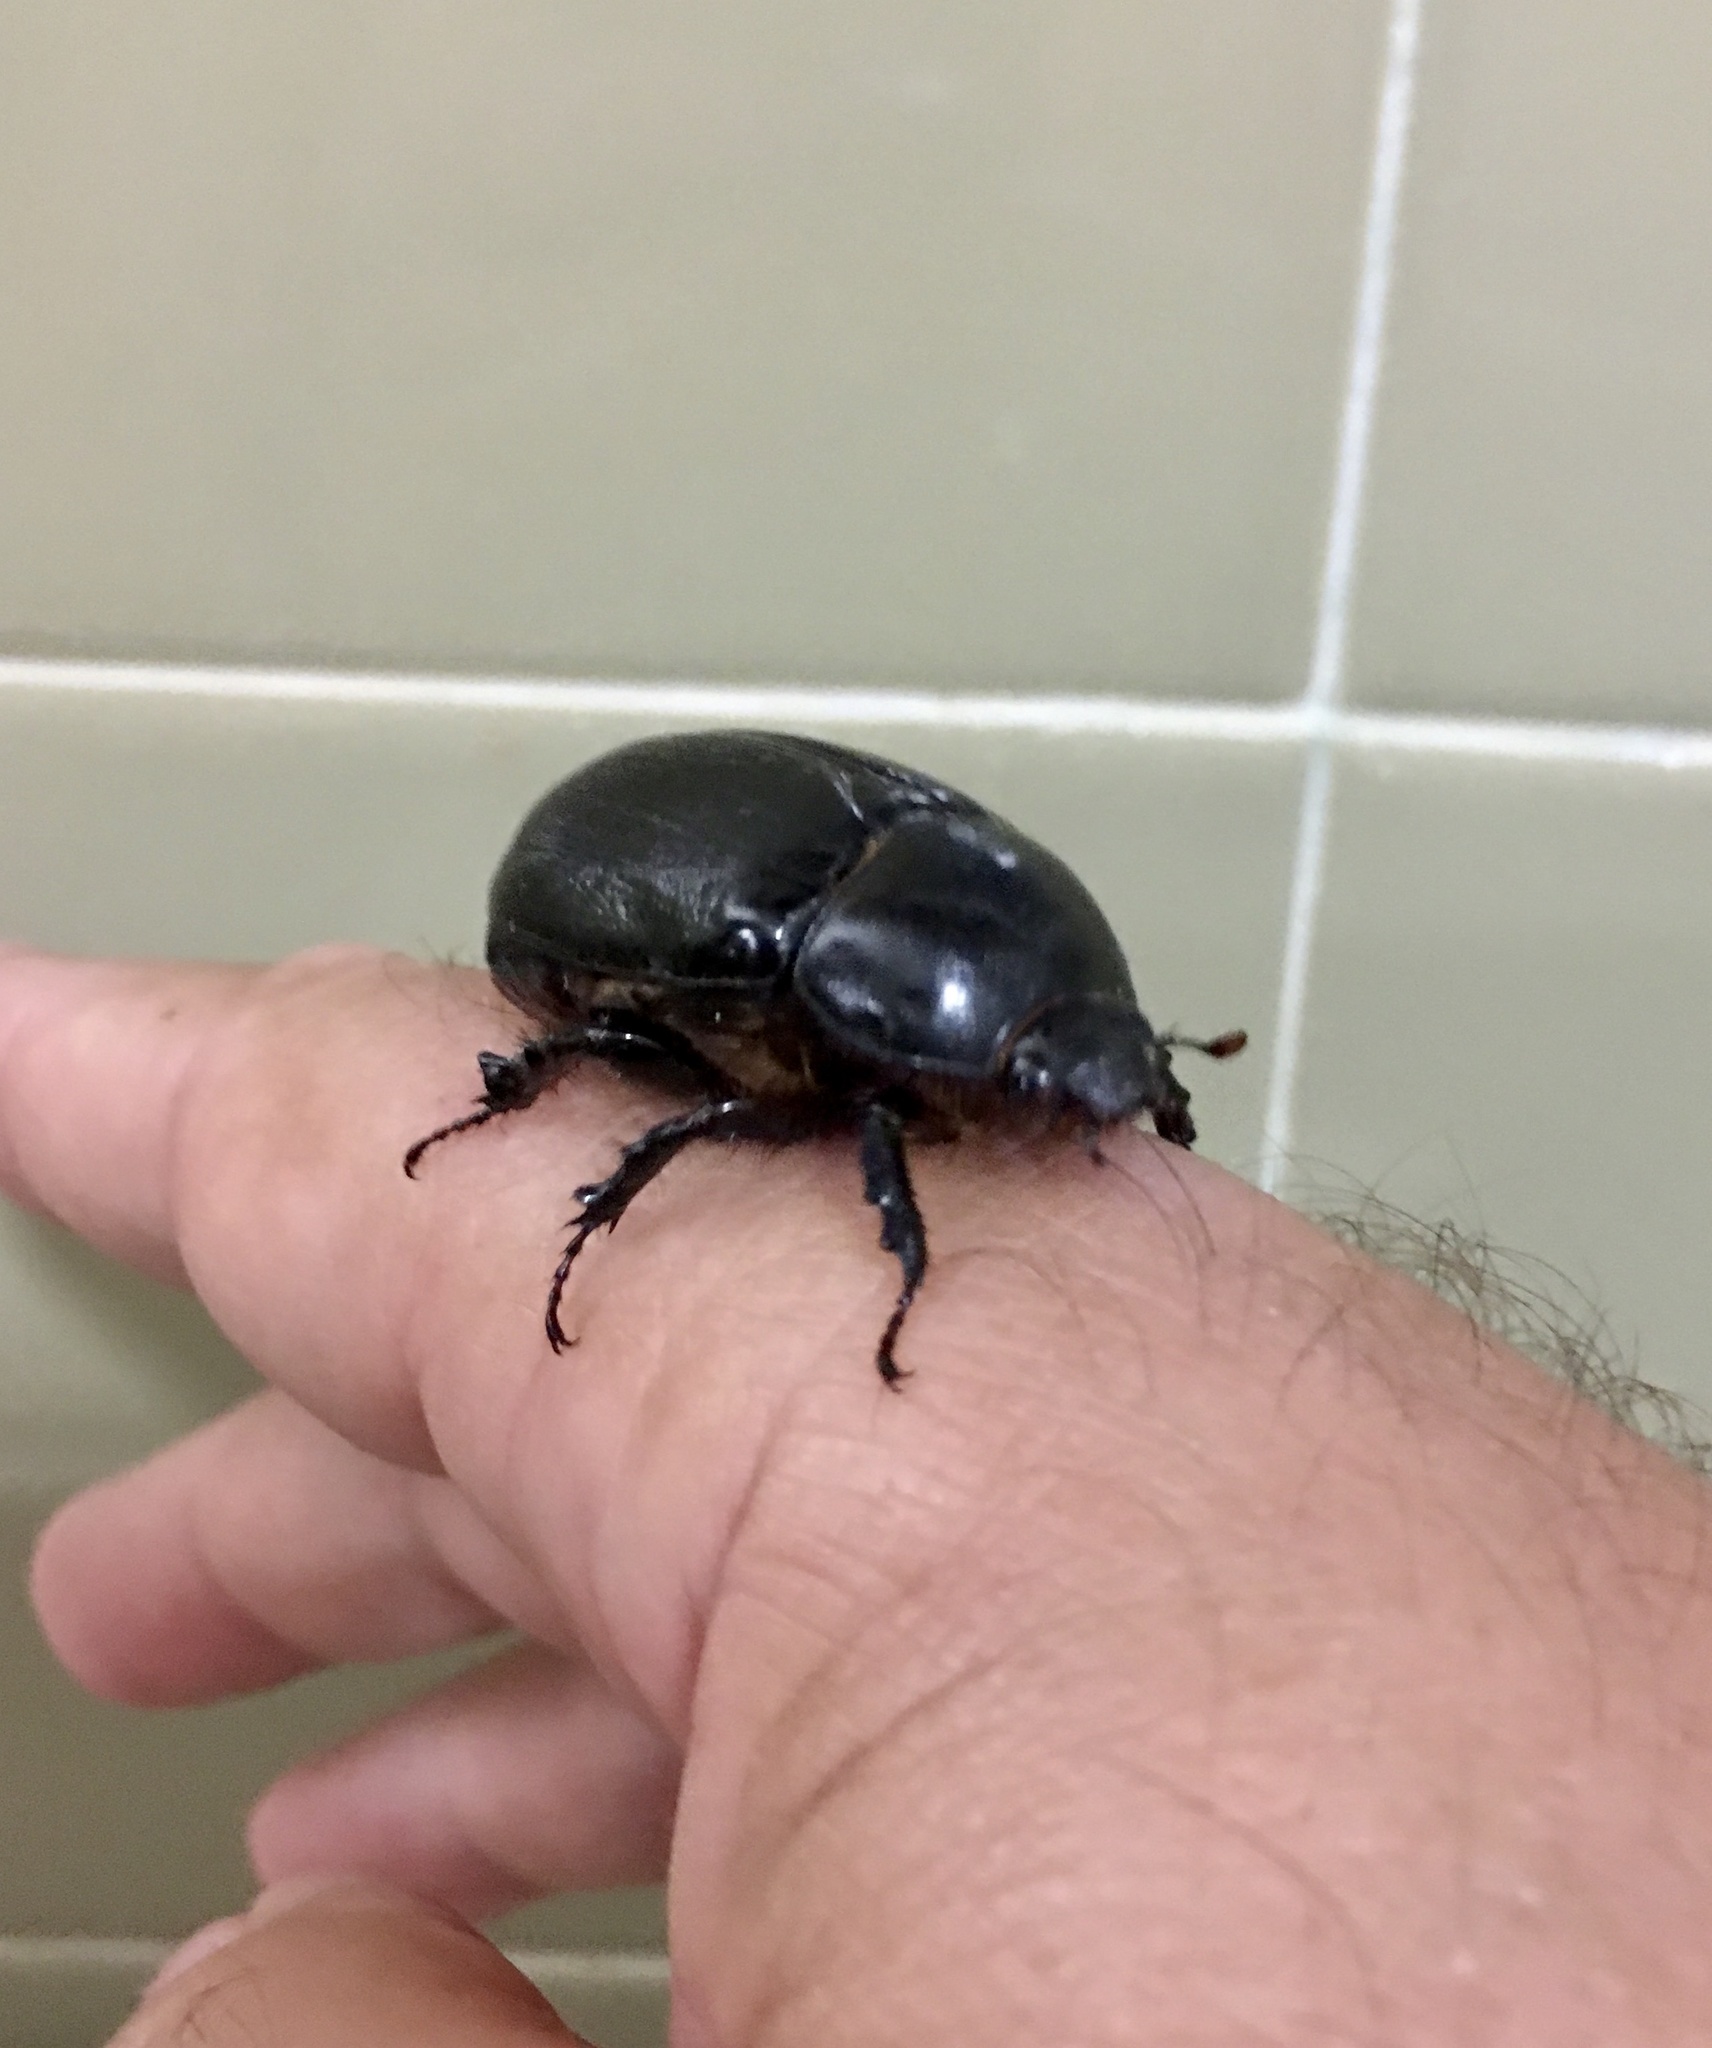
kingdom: Animalia
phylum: Arthropoda
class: Insecta
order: Coleoptera
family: Scarabaeidae
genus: Heteroligus
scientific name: Heteroligus meles
